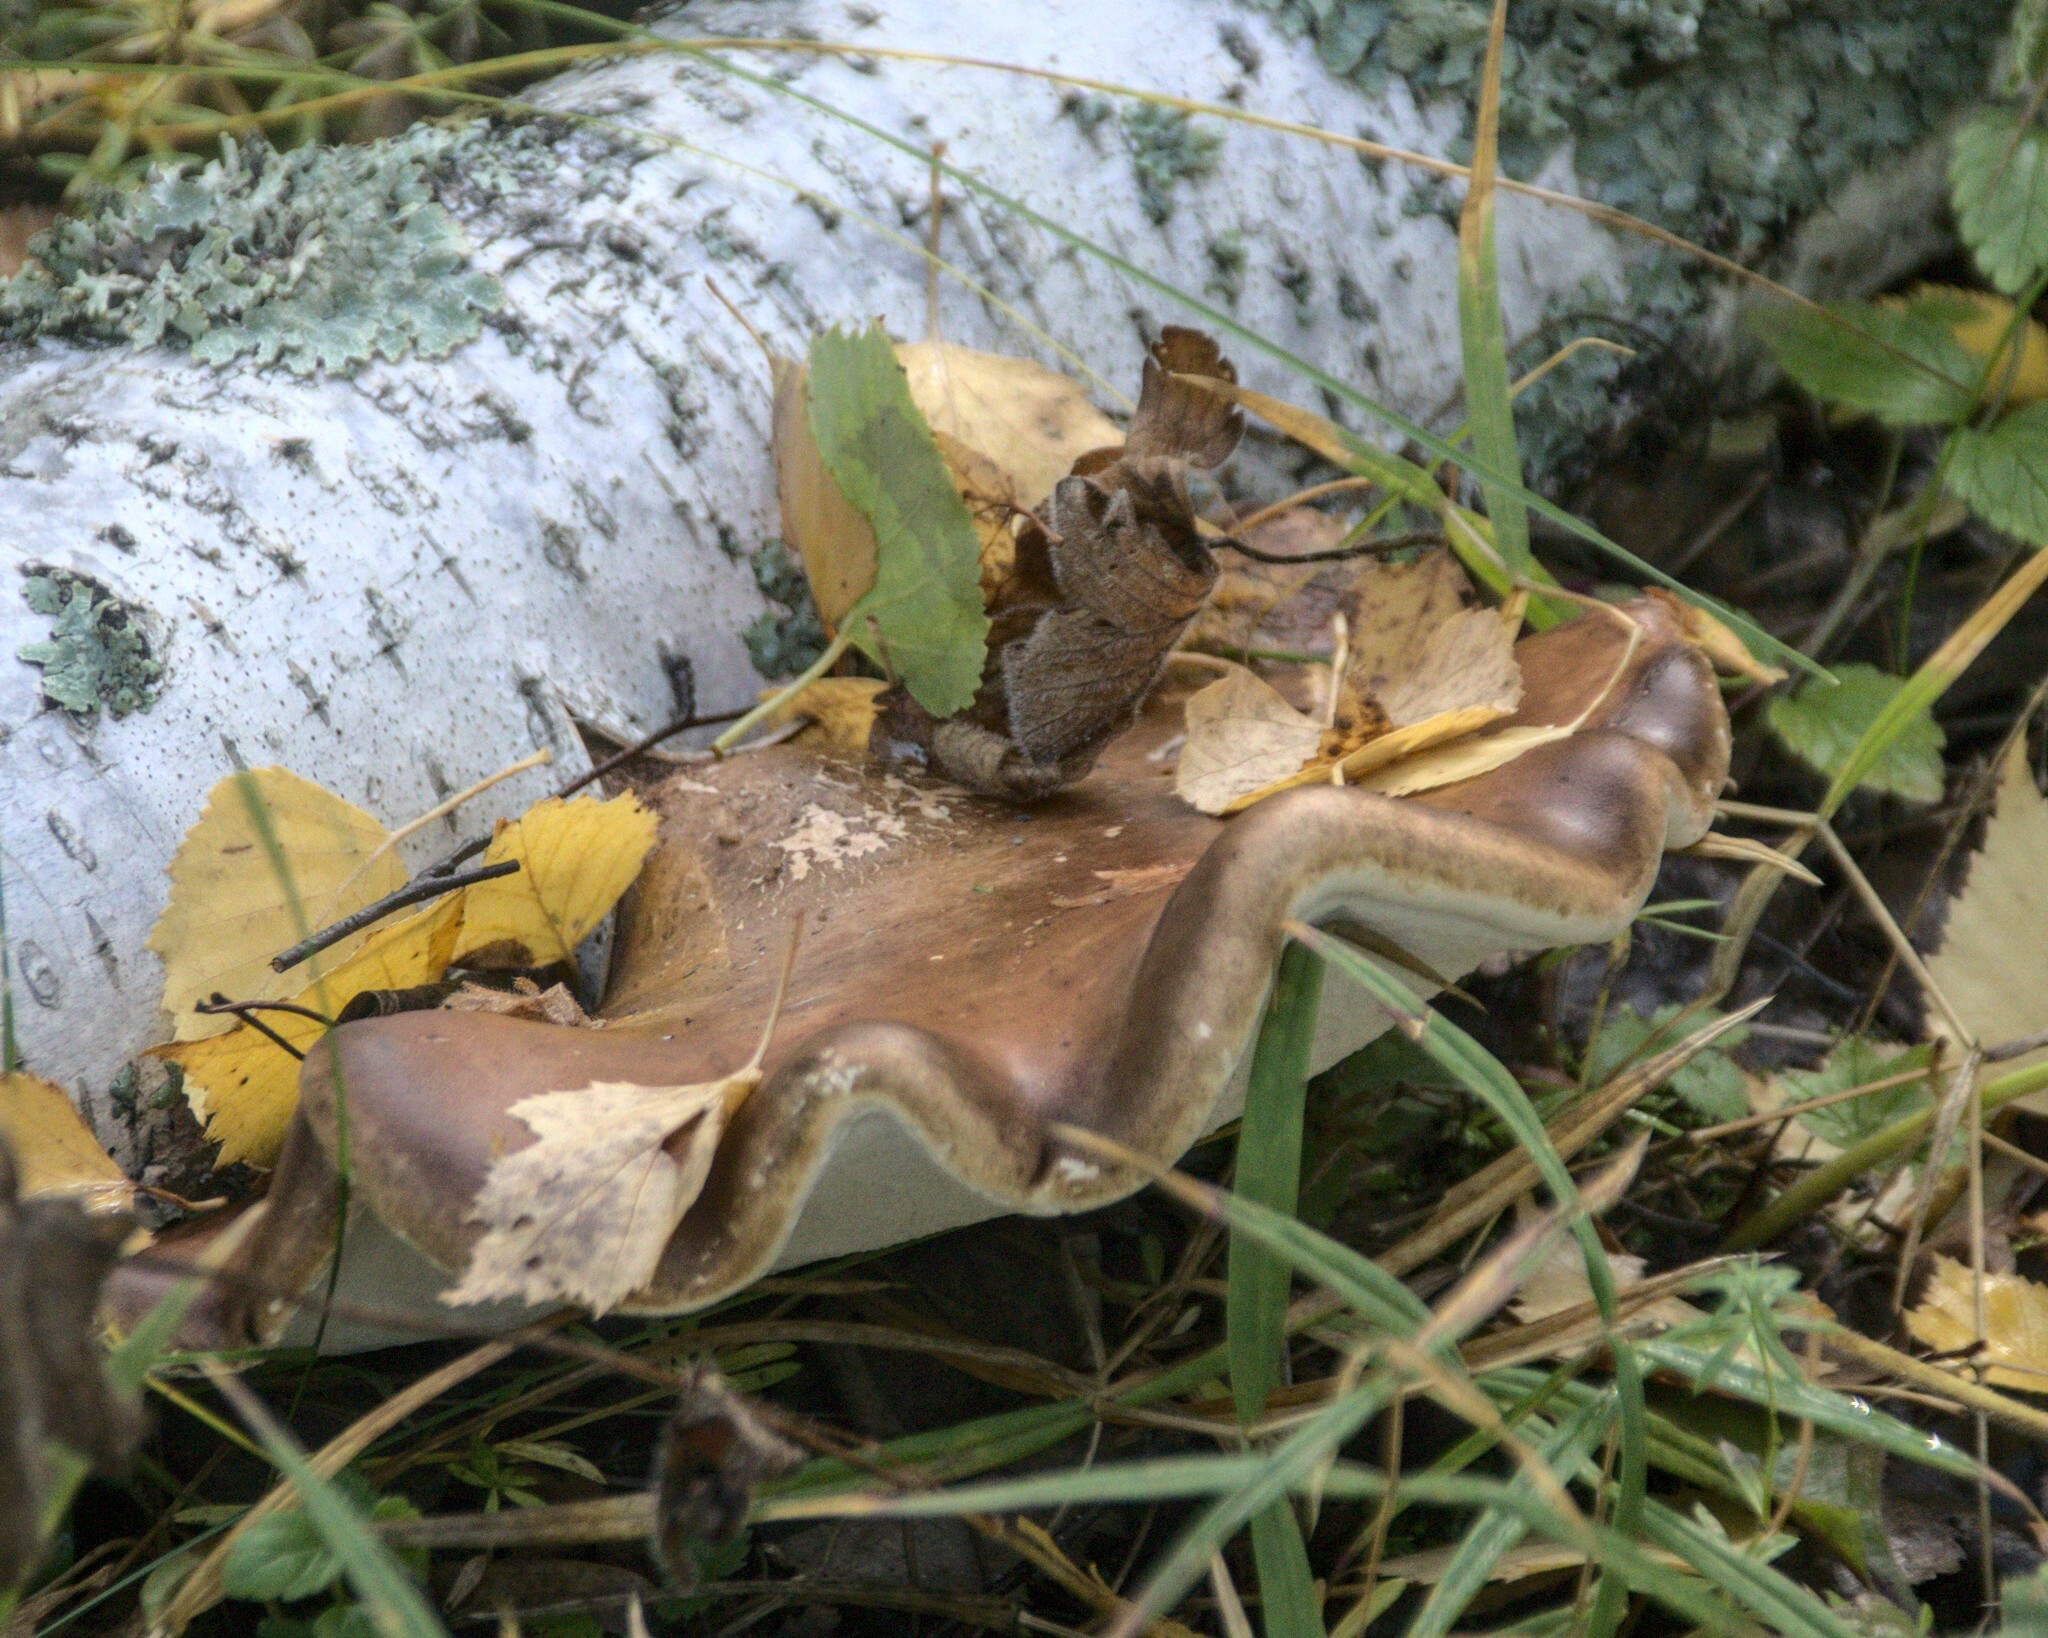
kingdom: Fungi
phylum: Basidiomycota
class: Agaricomycetes
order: Polyporales
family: Fomitopsidaceae
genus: Fomitopsis
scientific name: Fomitopsis betulina
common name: Birch polypore
